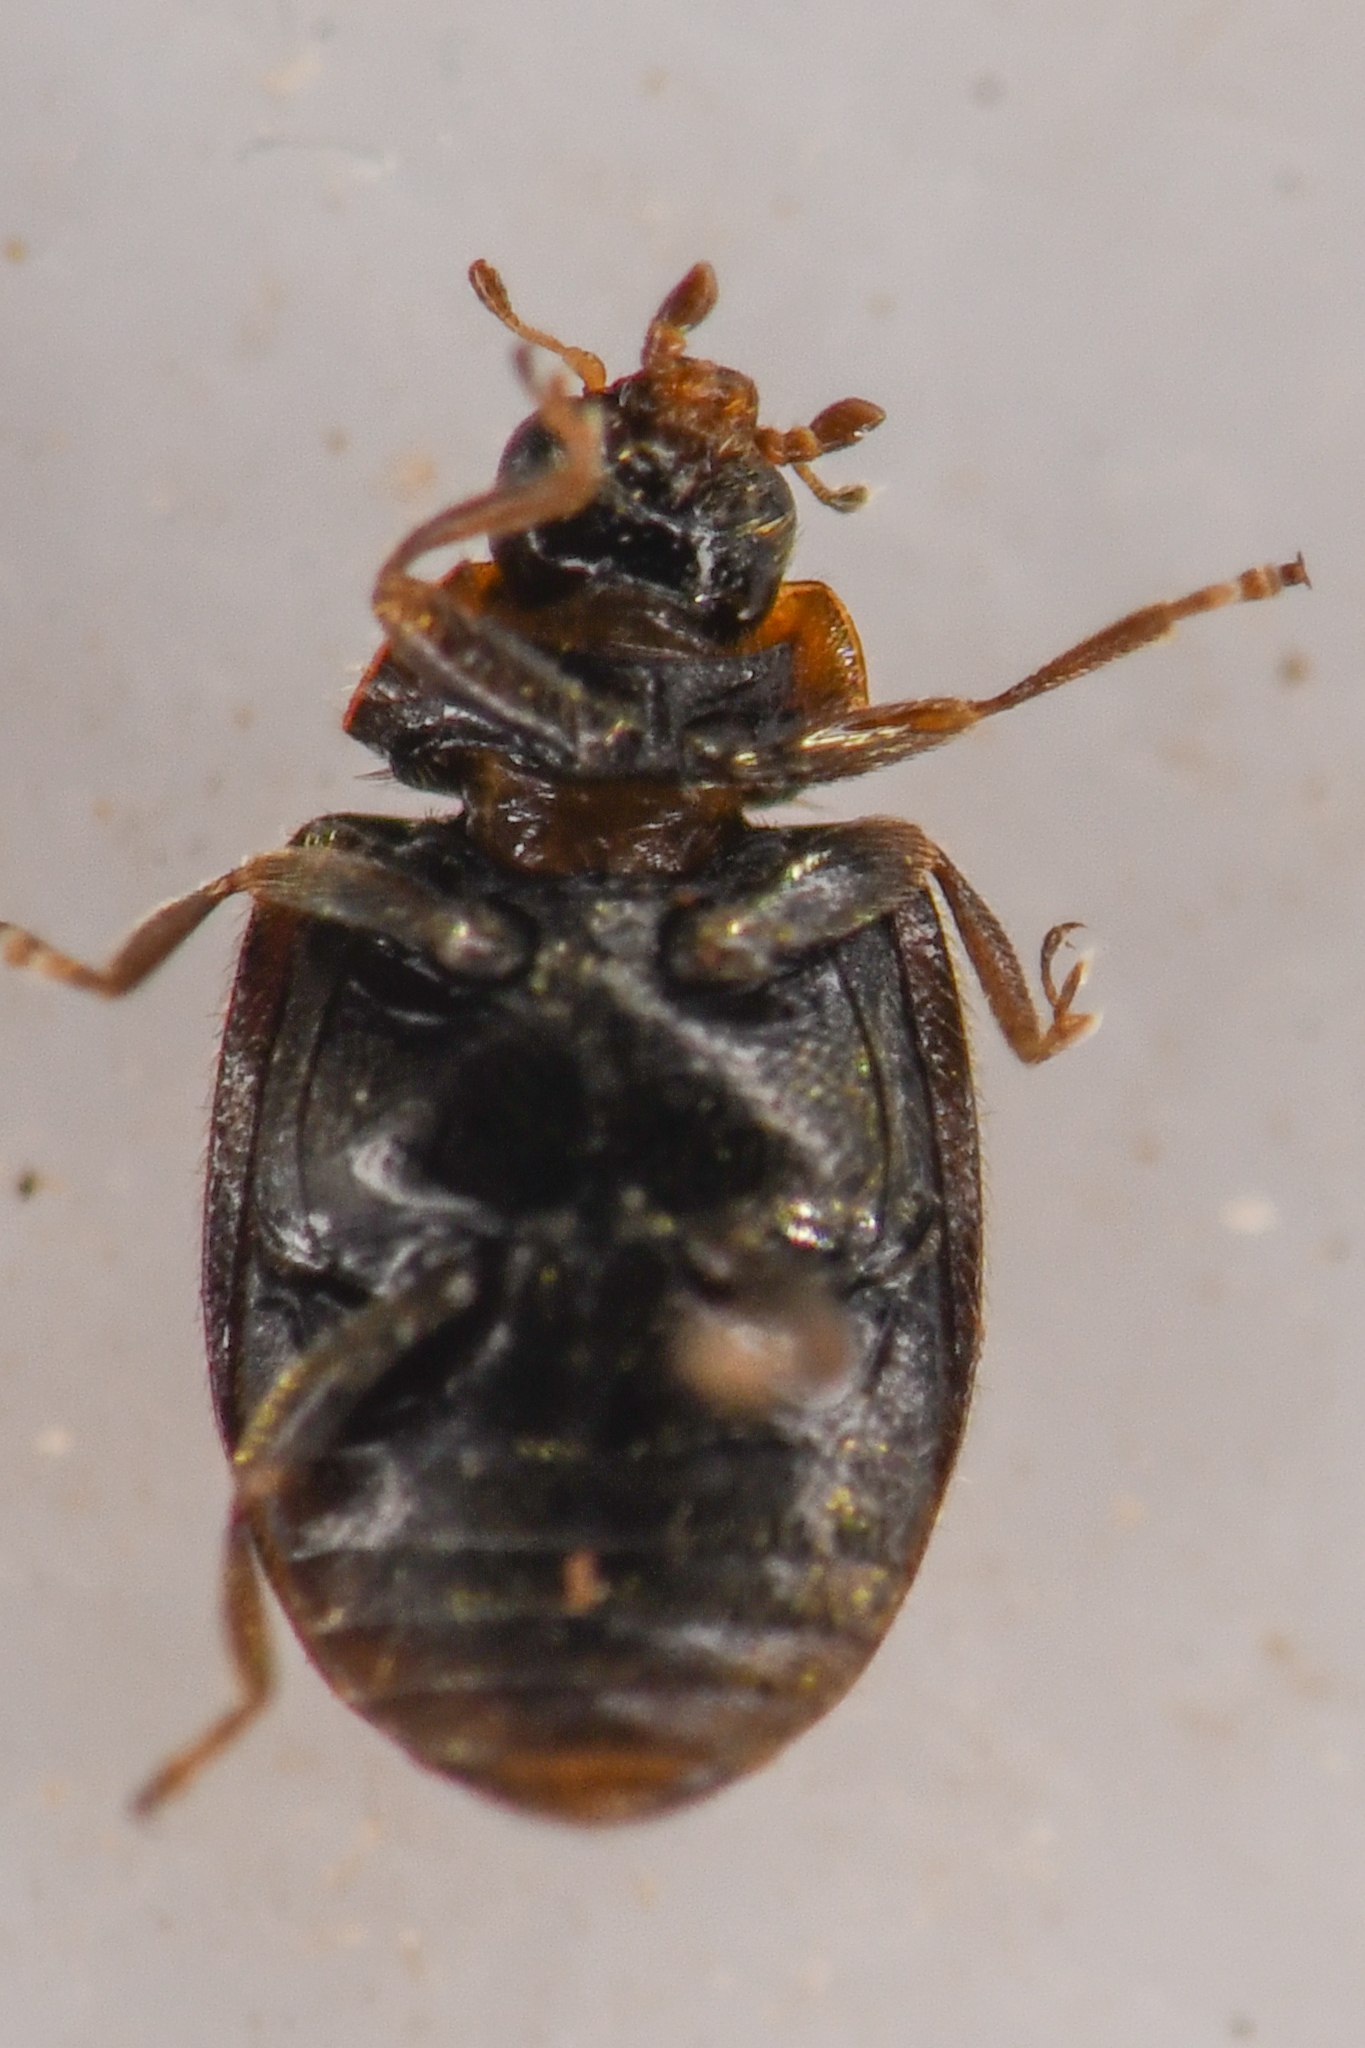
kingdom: Animalia
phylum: Arthropoda
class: Insecta
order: Coleoptera
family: Coccinellidae
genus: Scymnus
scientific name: Scymnus coniferarum
